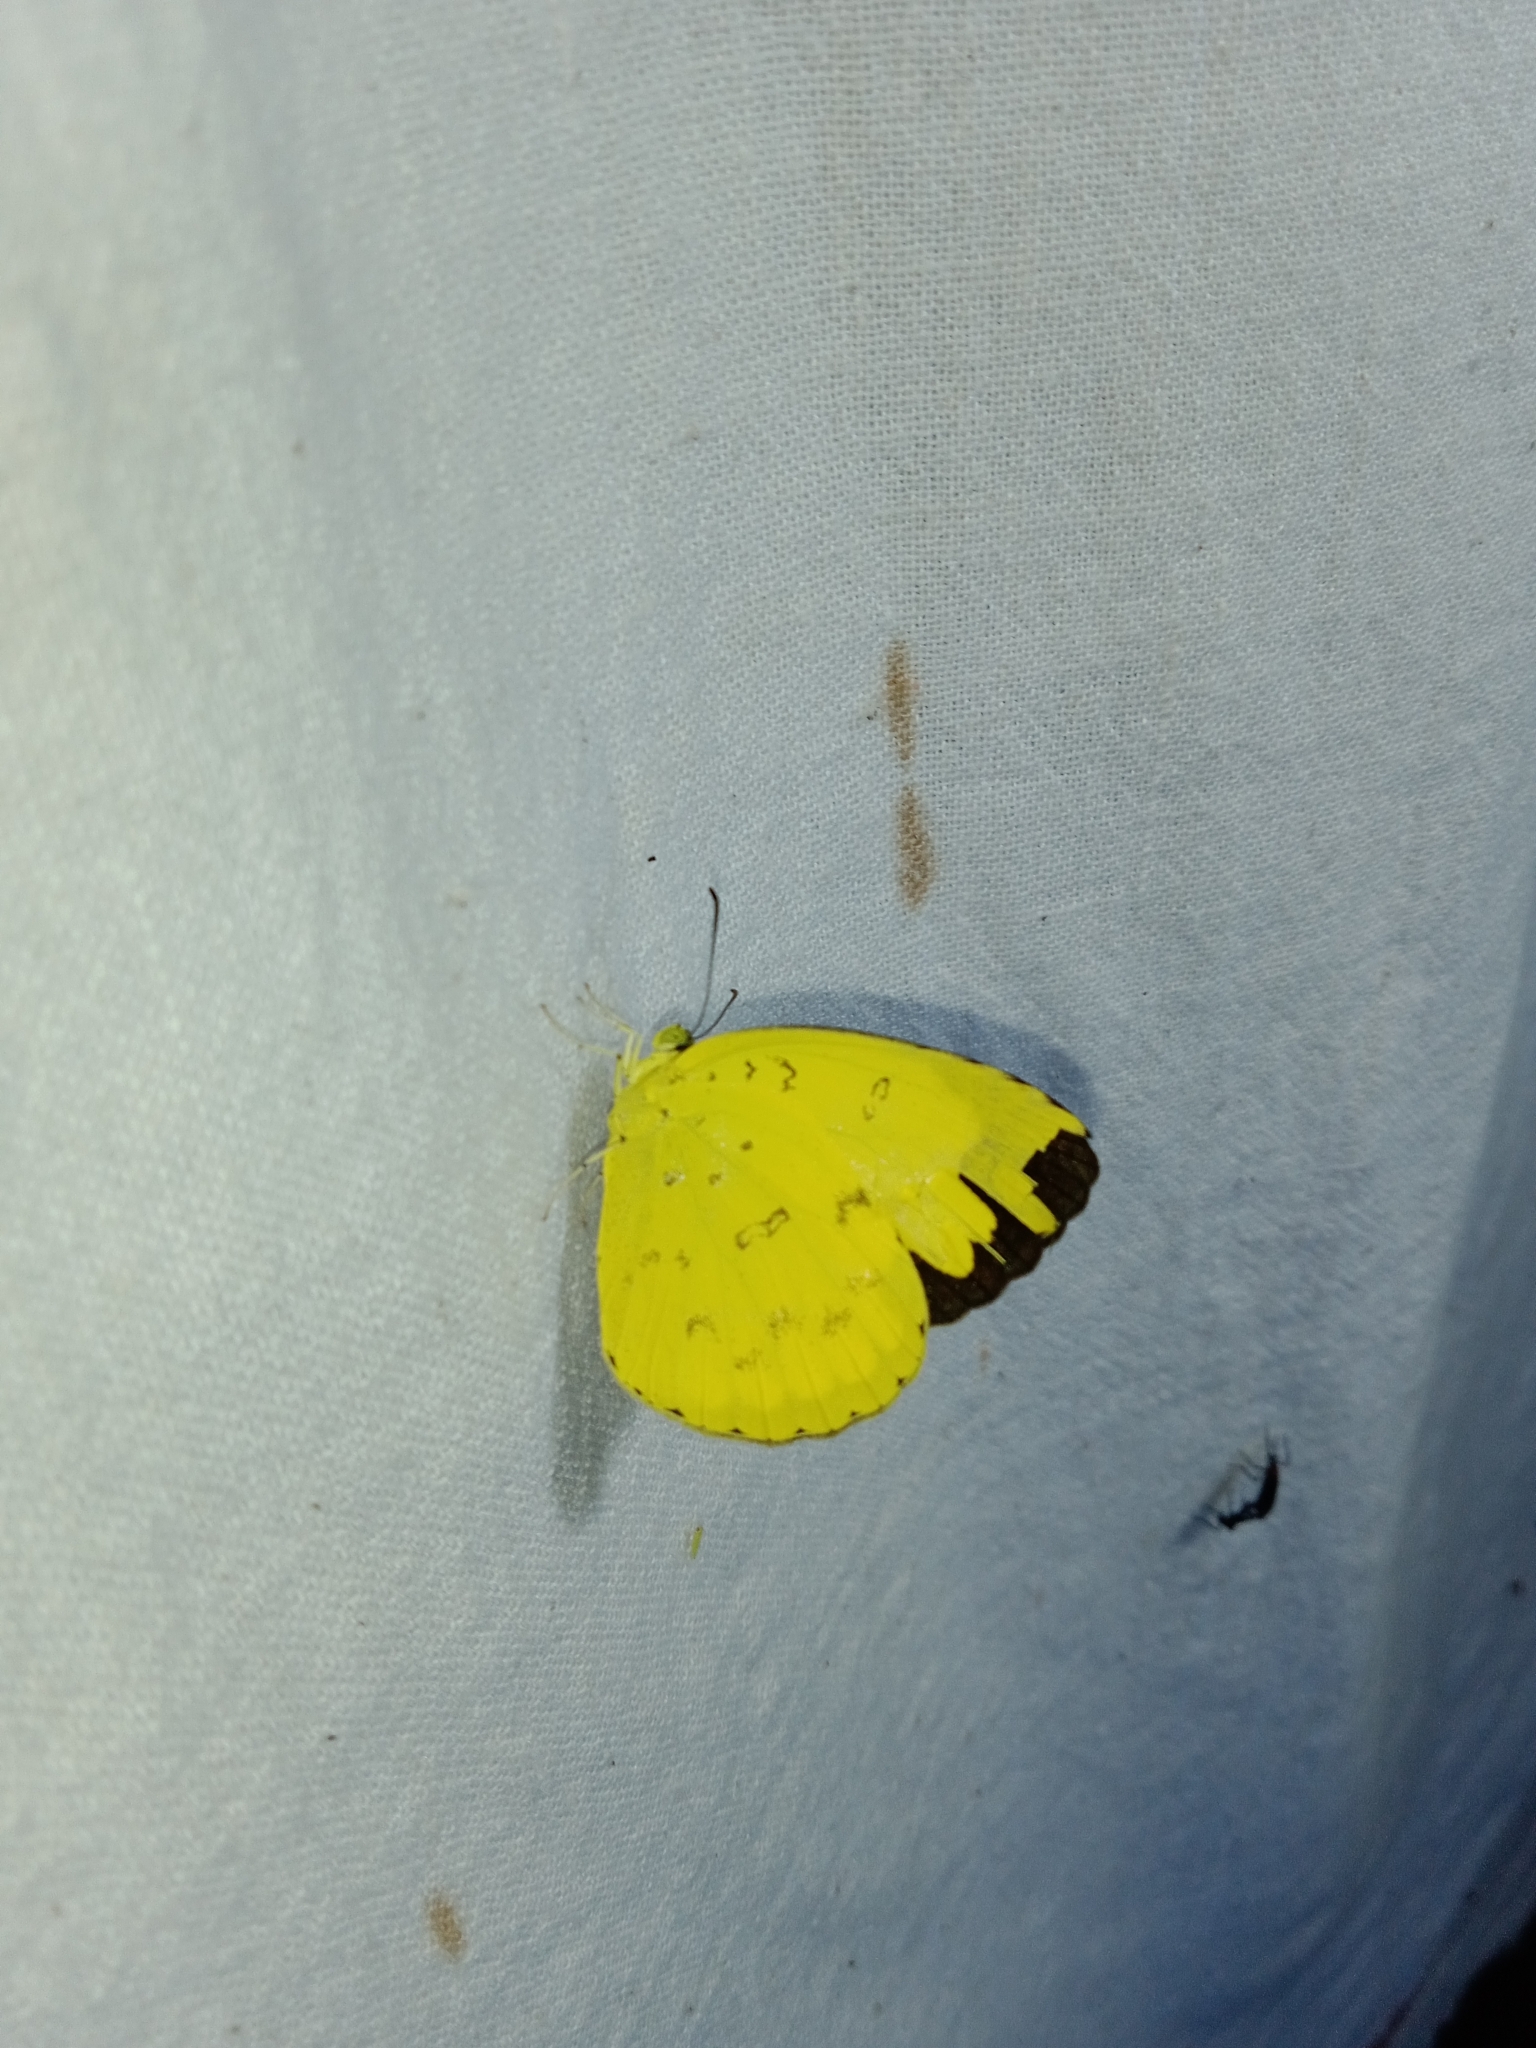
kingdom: Animalia
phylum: Arthropoda
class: Insecta
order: Lepidoptera
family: Pieridae
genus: Eurema
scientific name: Eurema blanda
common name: Three-spot grass yellow
